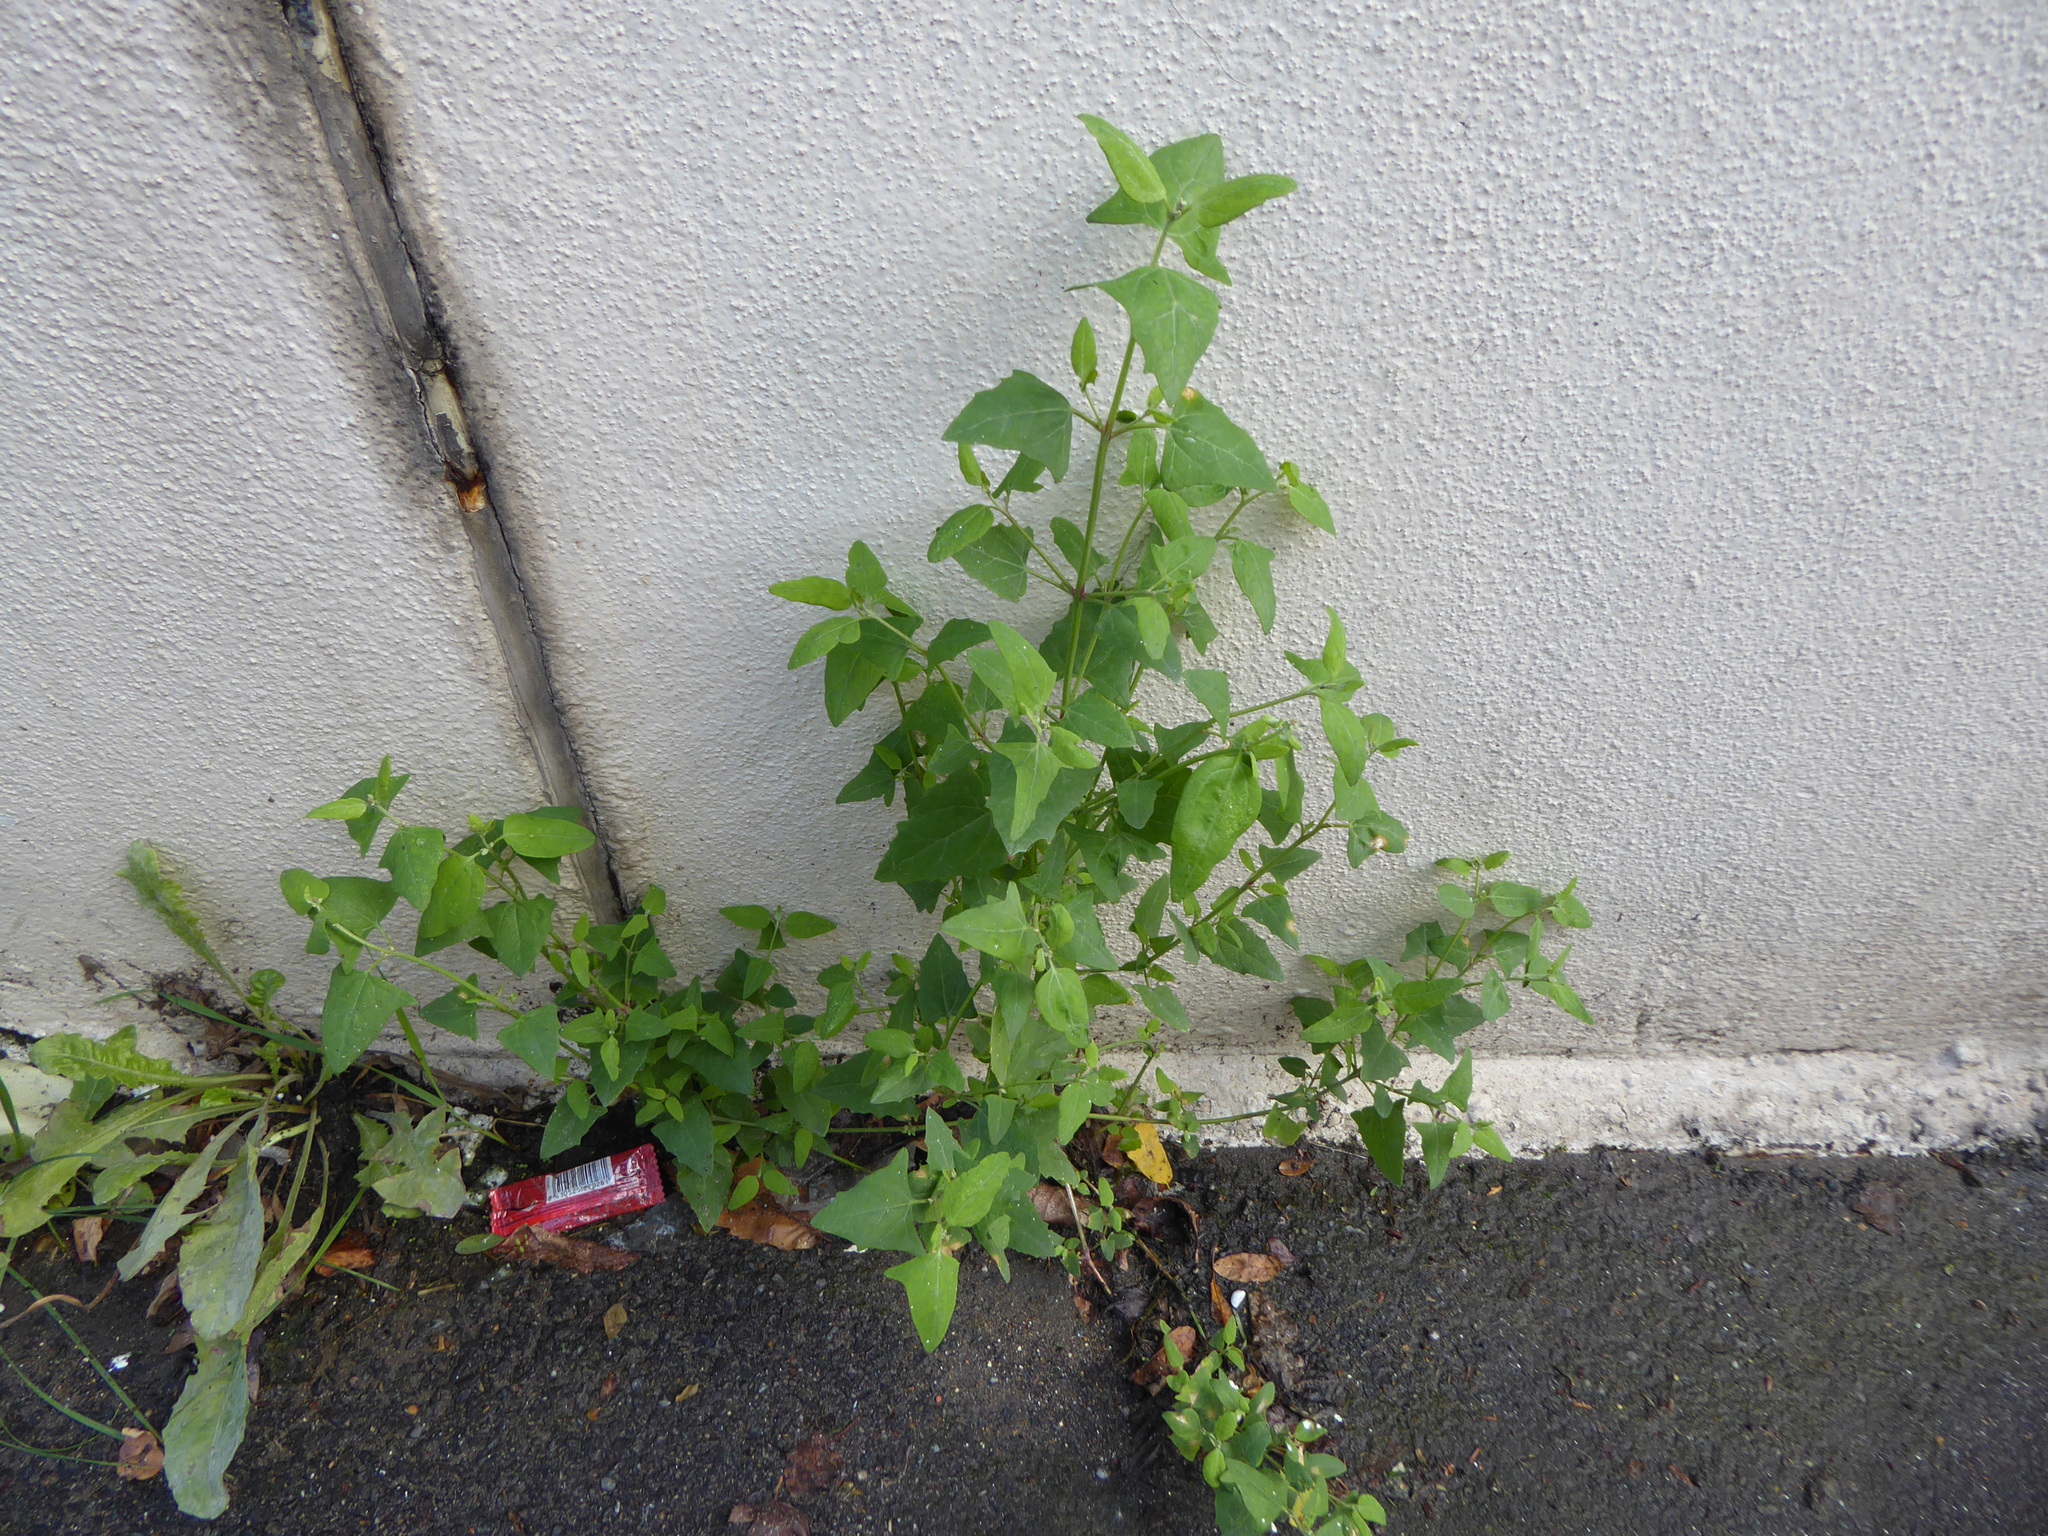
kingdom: Plantae
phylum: Tracheophyta
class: Magnoliopsida
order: Caryophyllales
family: Amaranthaceae
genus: Atriplex
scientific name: Atriplex prostrata
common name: Spear-leaved orache
